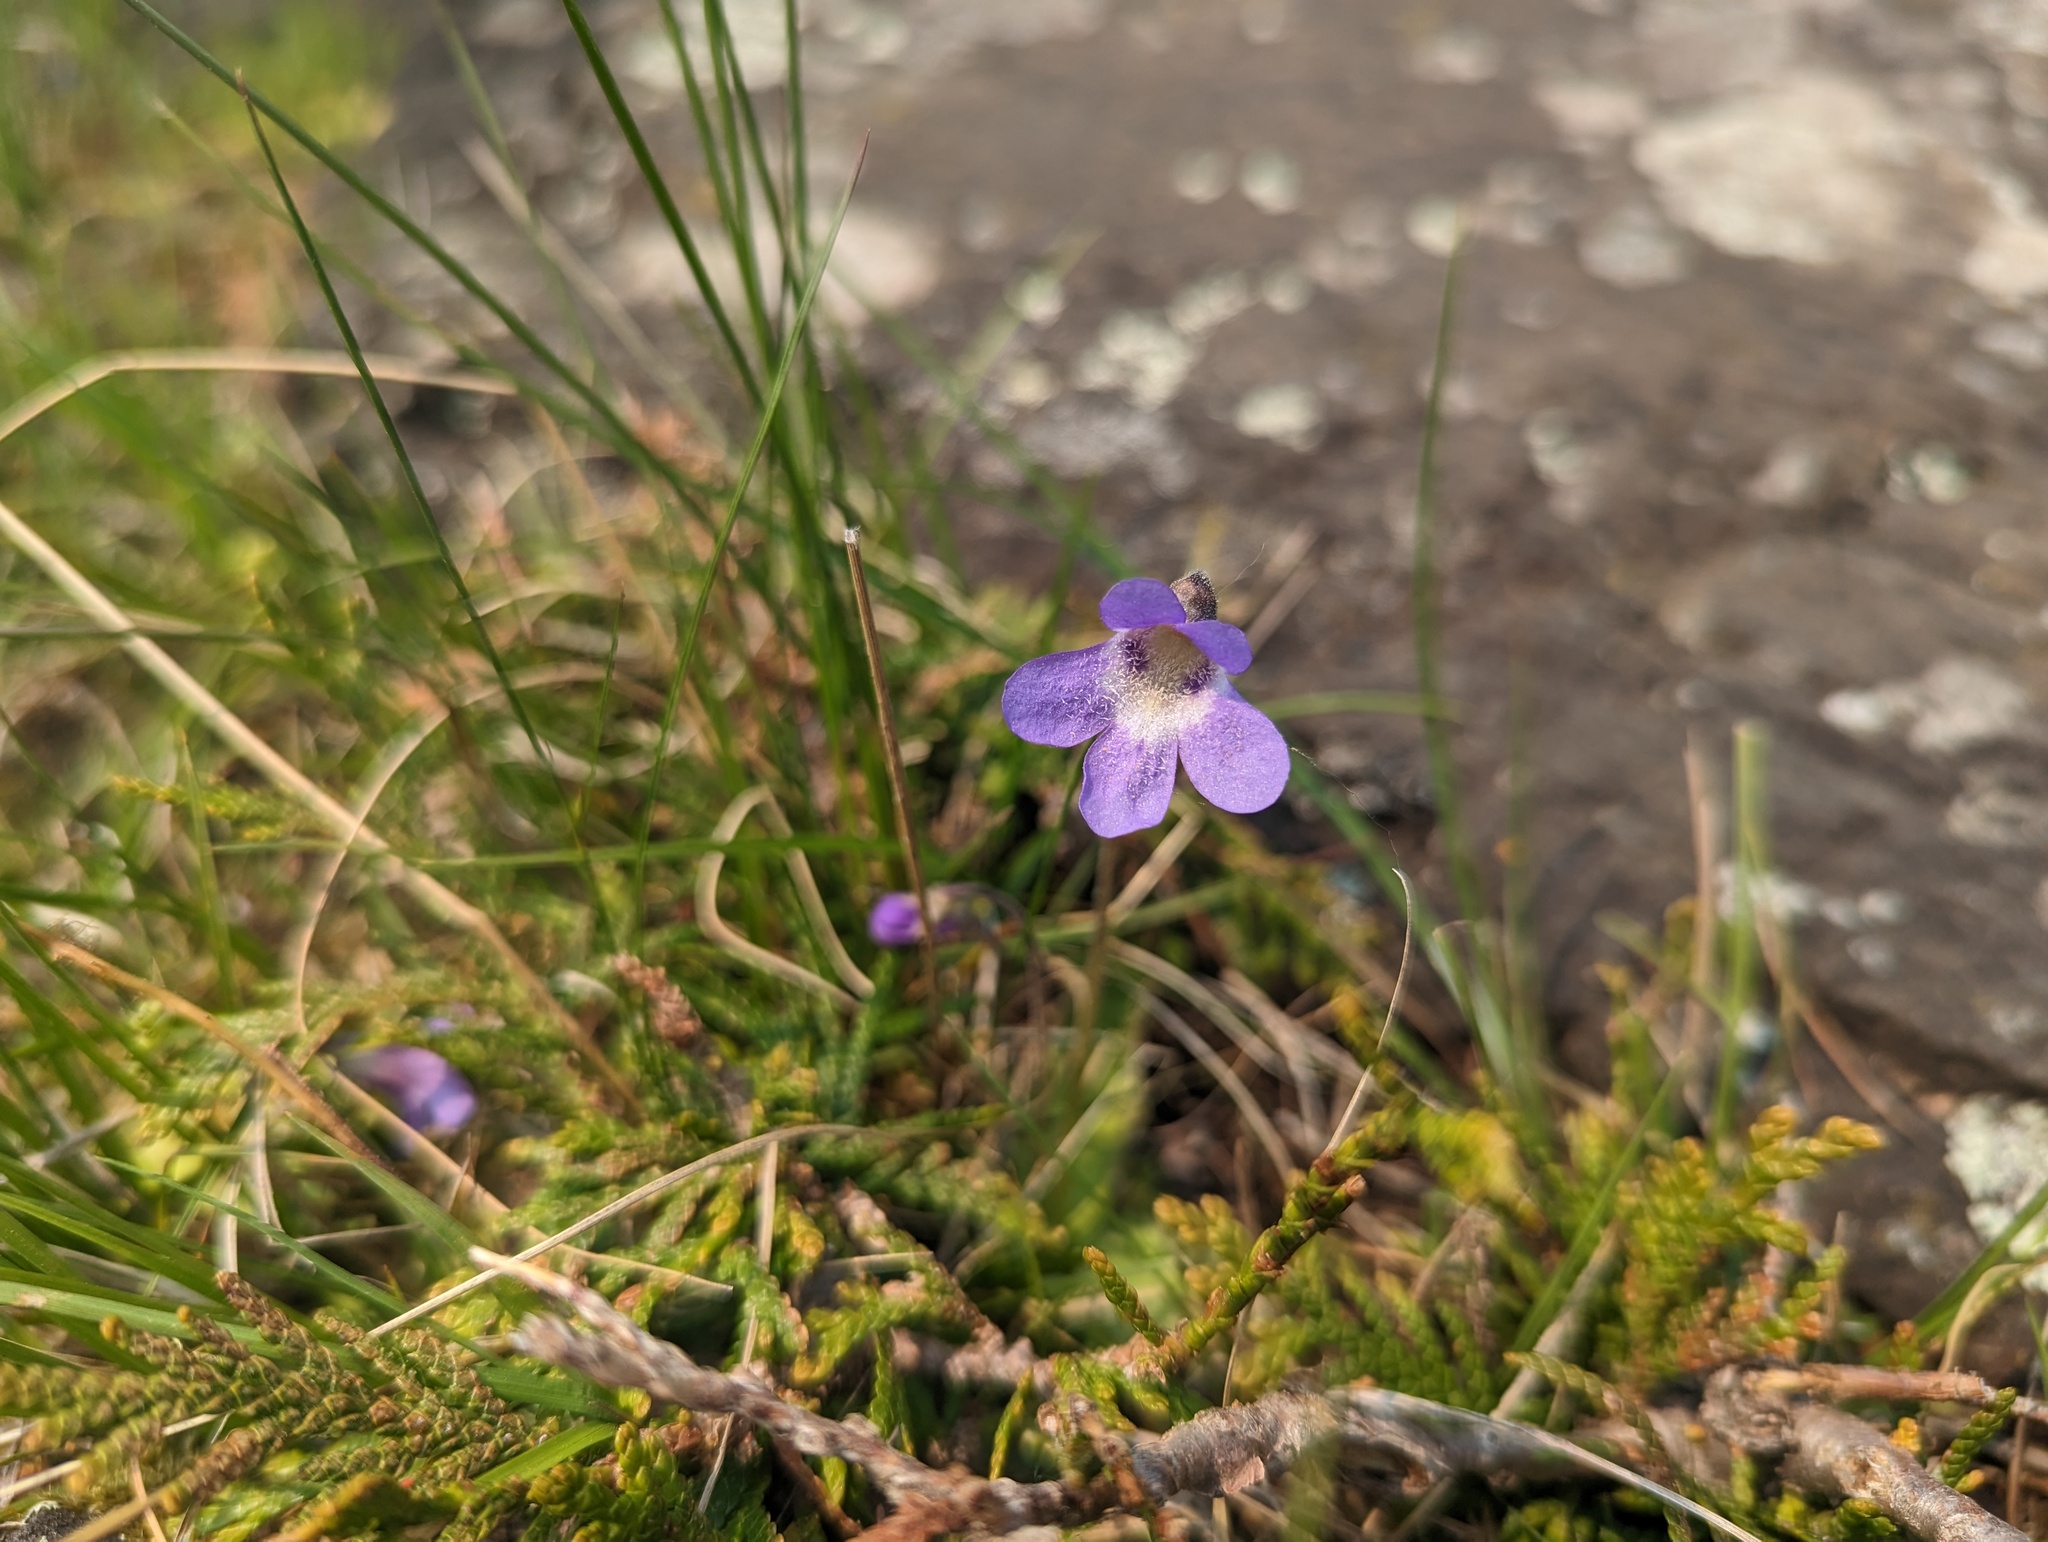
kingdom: Plantae
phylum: Tracheophyta
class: Magnoliopsida
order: Lamiales
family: Lentibulariaceae
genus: Pinguicula
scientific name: Pinguicula vulgaris
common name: Common butterwort
